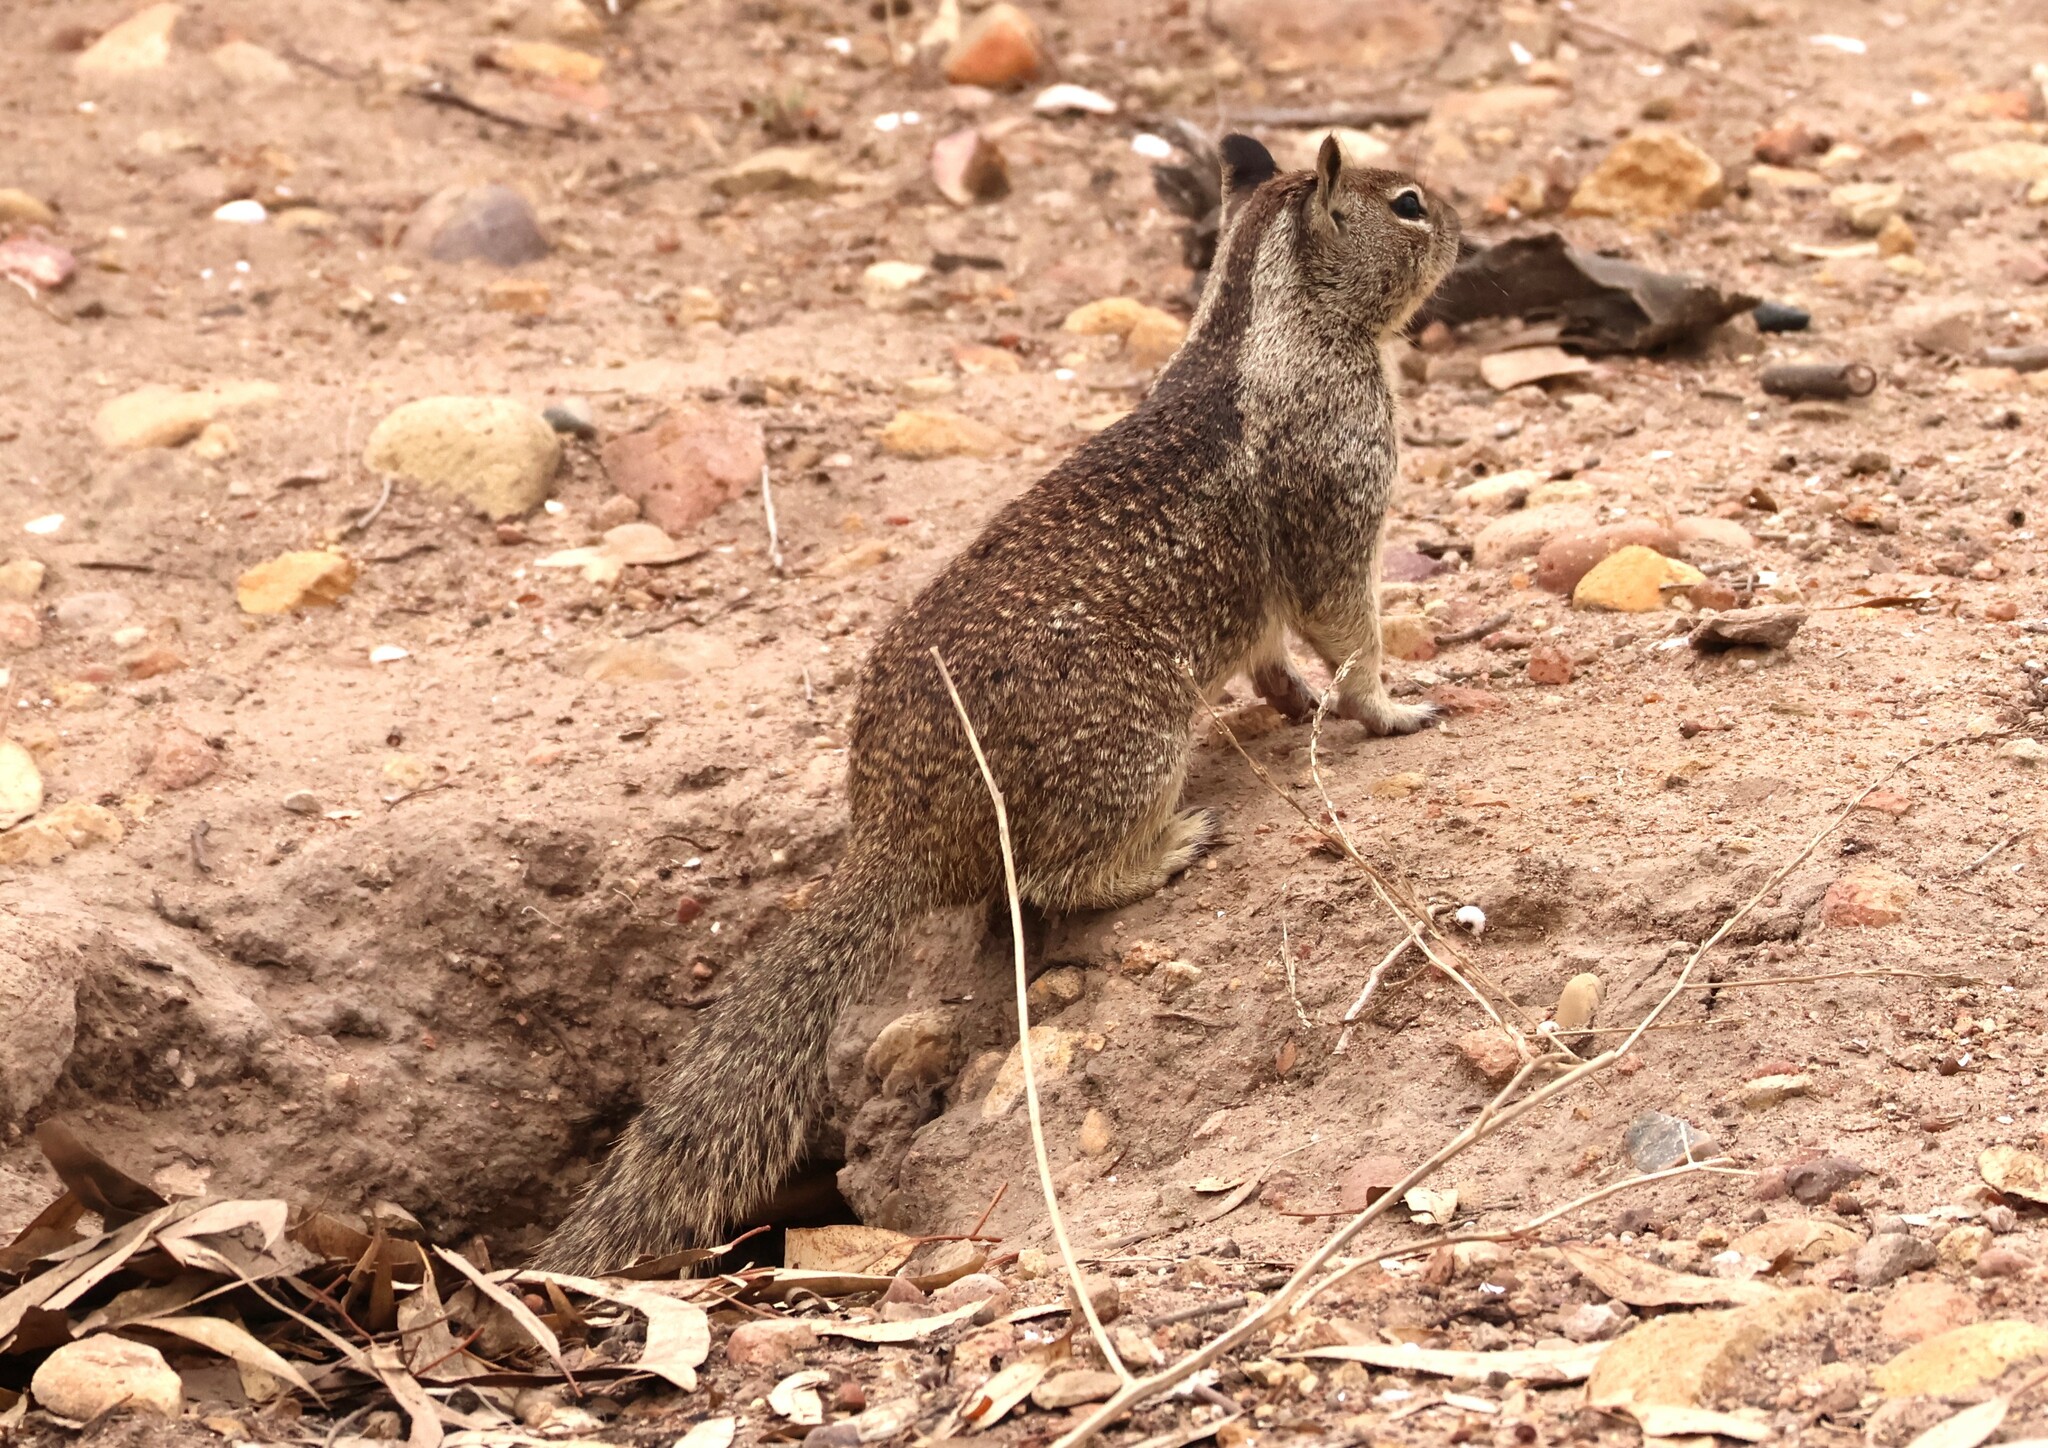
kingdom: Animalia
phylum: Chordata
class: Mammalia
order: Rodentia
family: Sciuridae
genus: Otospermophilus
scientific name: Otospermophilus beecheyi
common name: California ground squirrel
